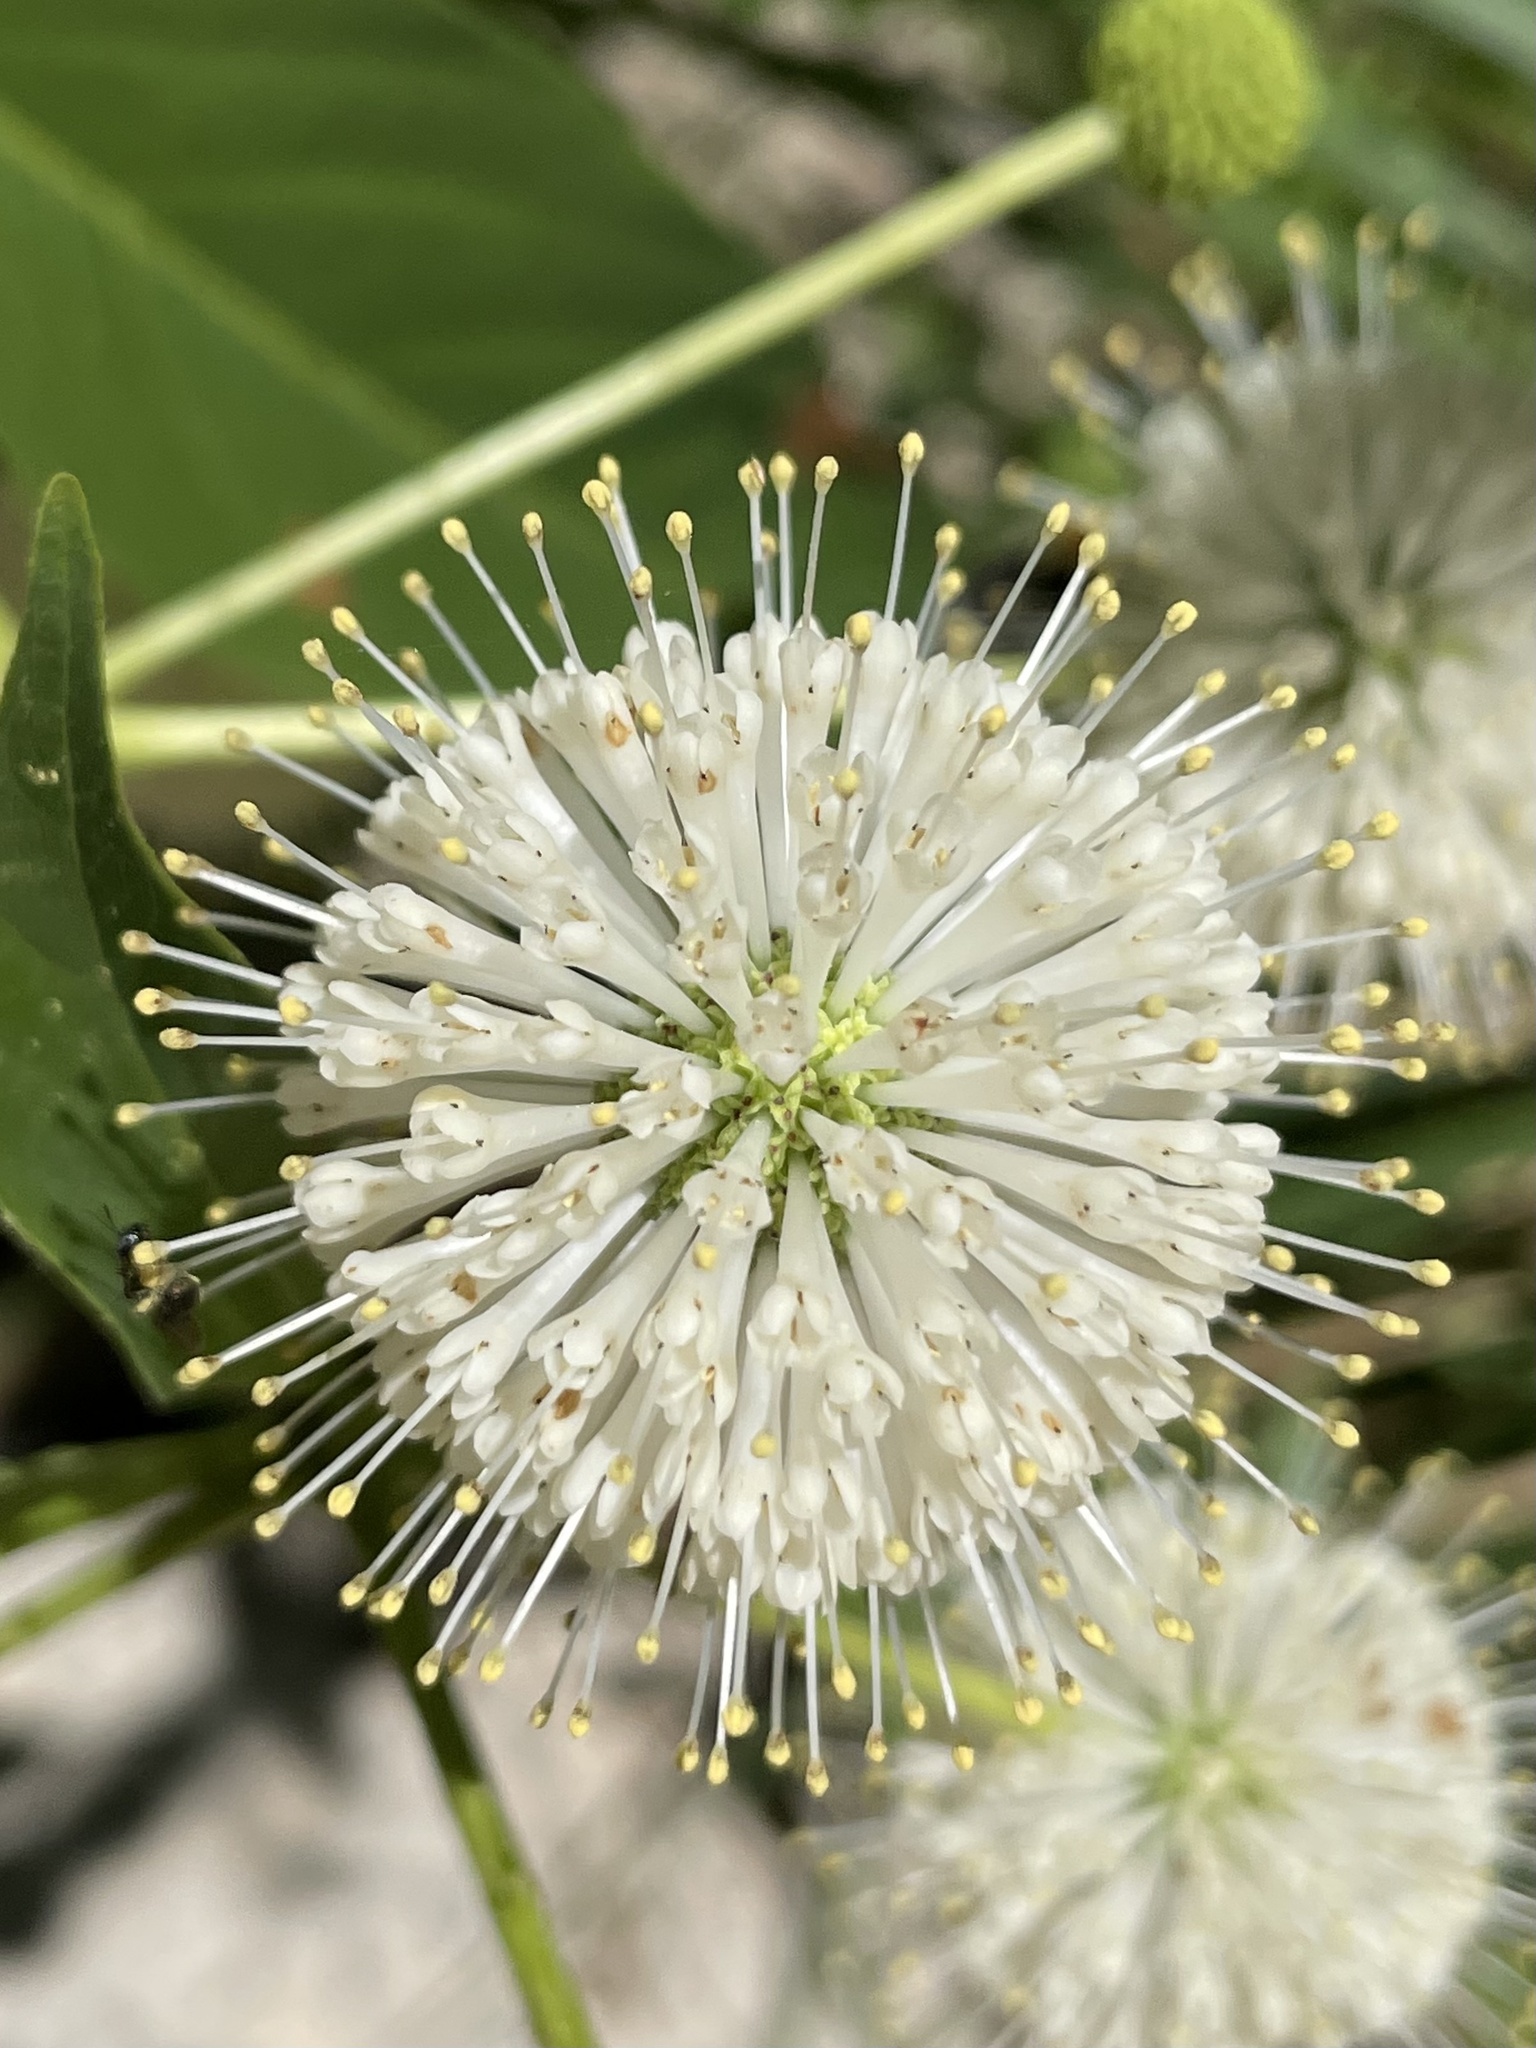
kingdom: Plantae
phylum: Tracheophyta
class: Magnoliopsida
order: Gentianales
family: Rubiaceae
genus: Cephalanthus
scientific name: Cephalanthus occidentalis
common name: Button-willow
